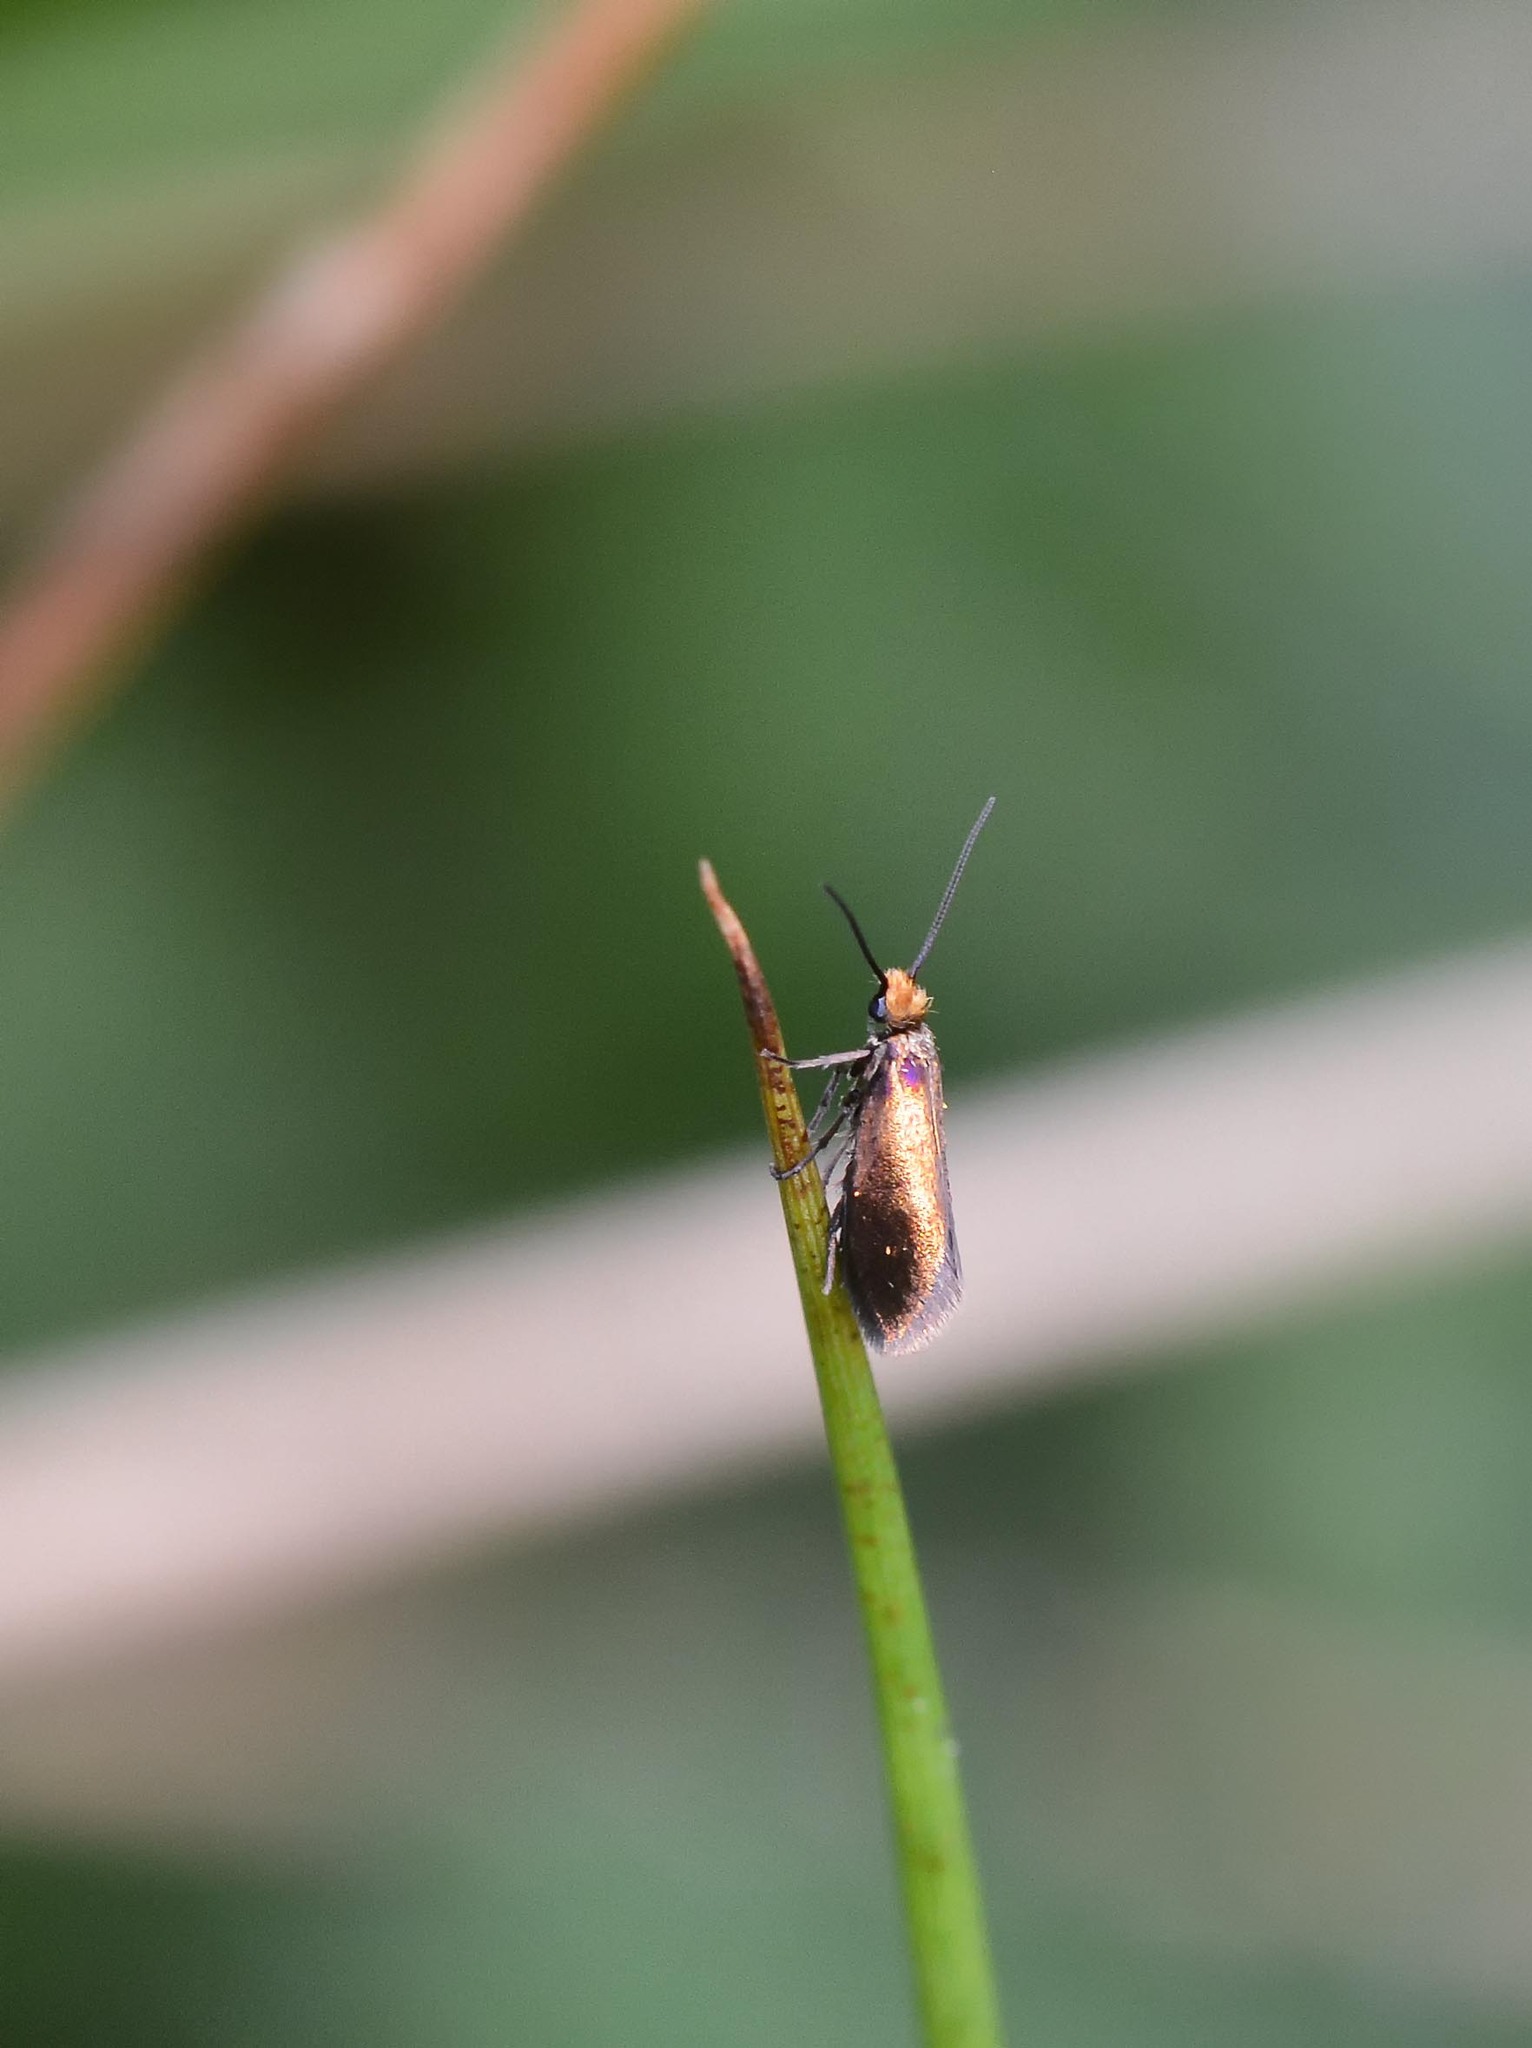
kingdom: Animalia
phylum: Arthropoda
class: Insecta
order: Lepidoptera
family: Micropterigidae
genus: Micropterix
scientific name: Micropterix calthella
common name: Plain gold
